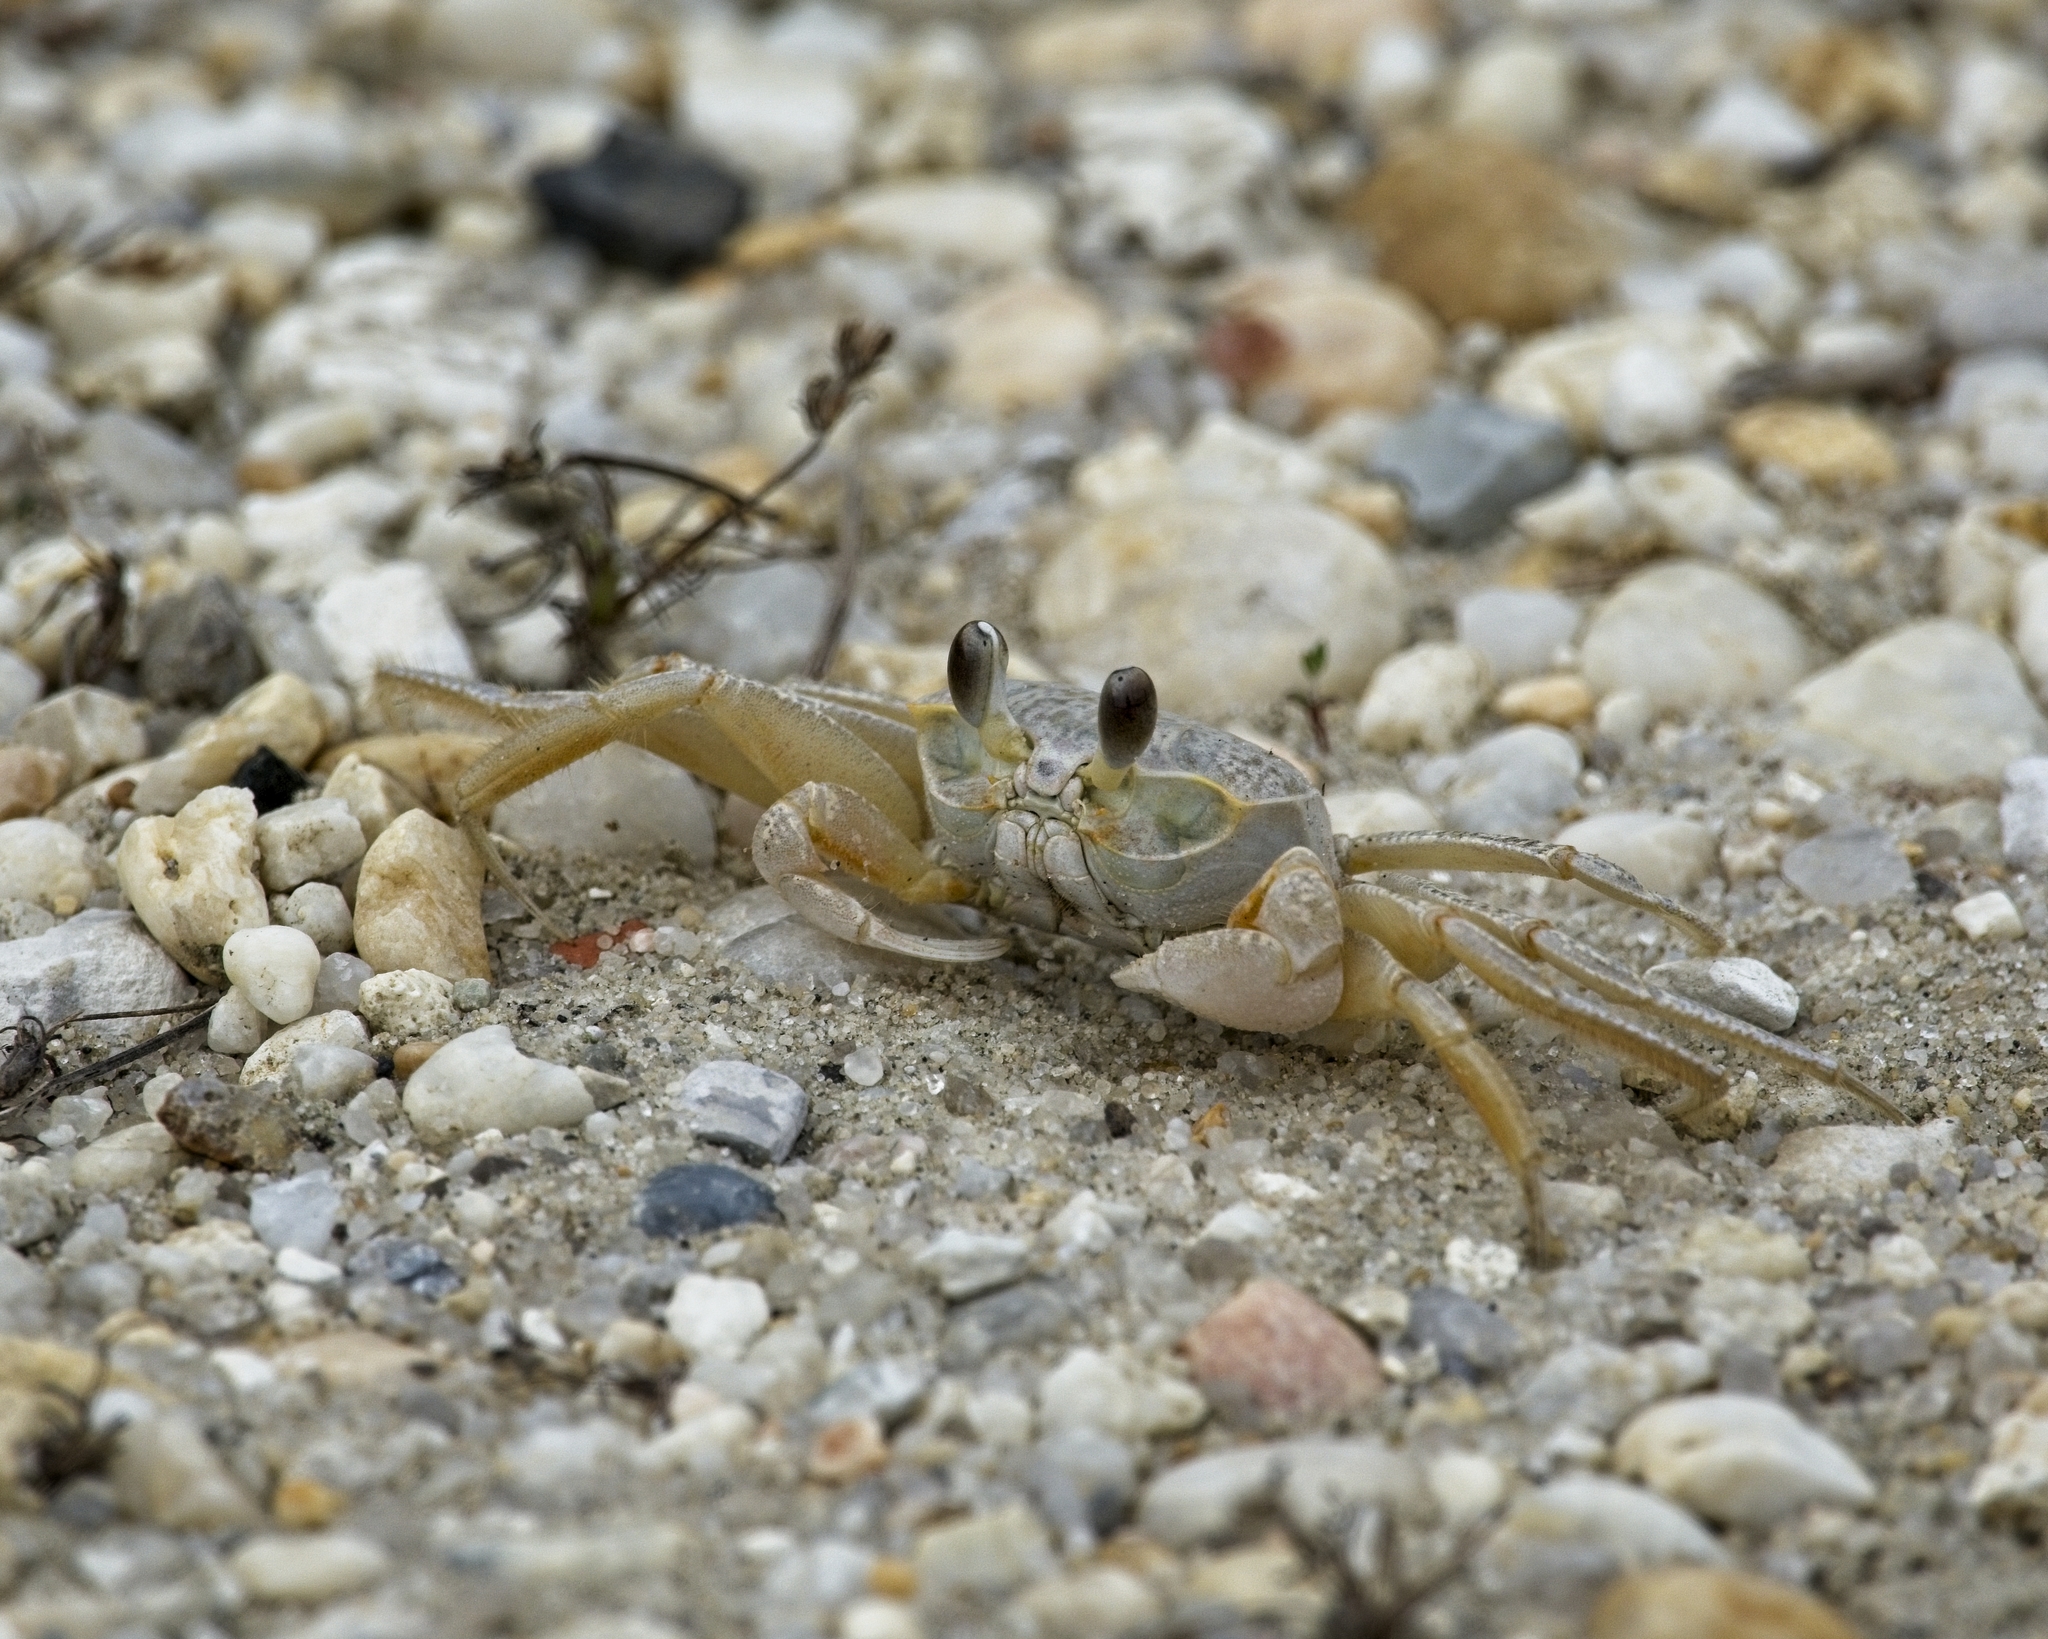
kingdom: Animalia
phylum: Arthropoda
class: Malacostraca
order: Decapoda
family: Ocypodidae
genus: Ocypode
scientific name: Ocypode quadrata
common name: Ghost crab
